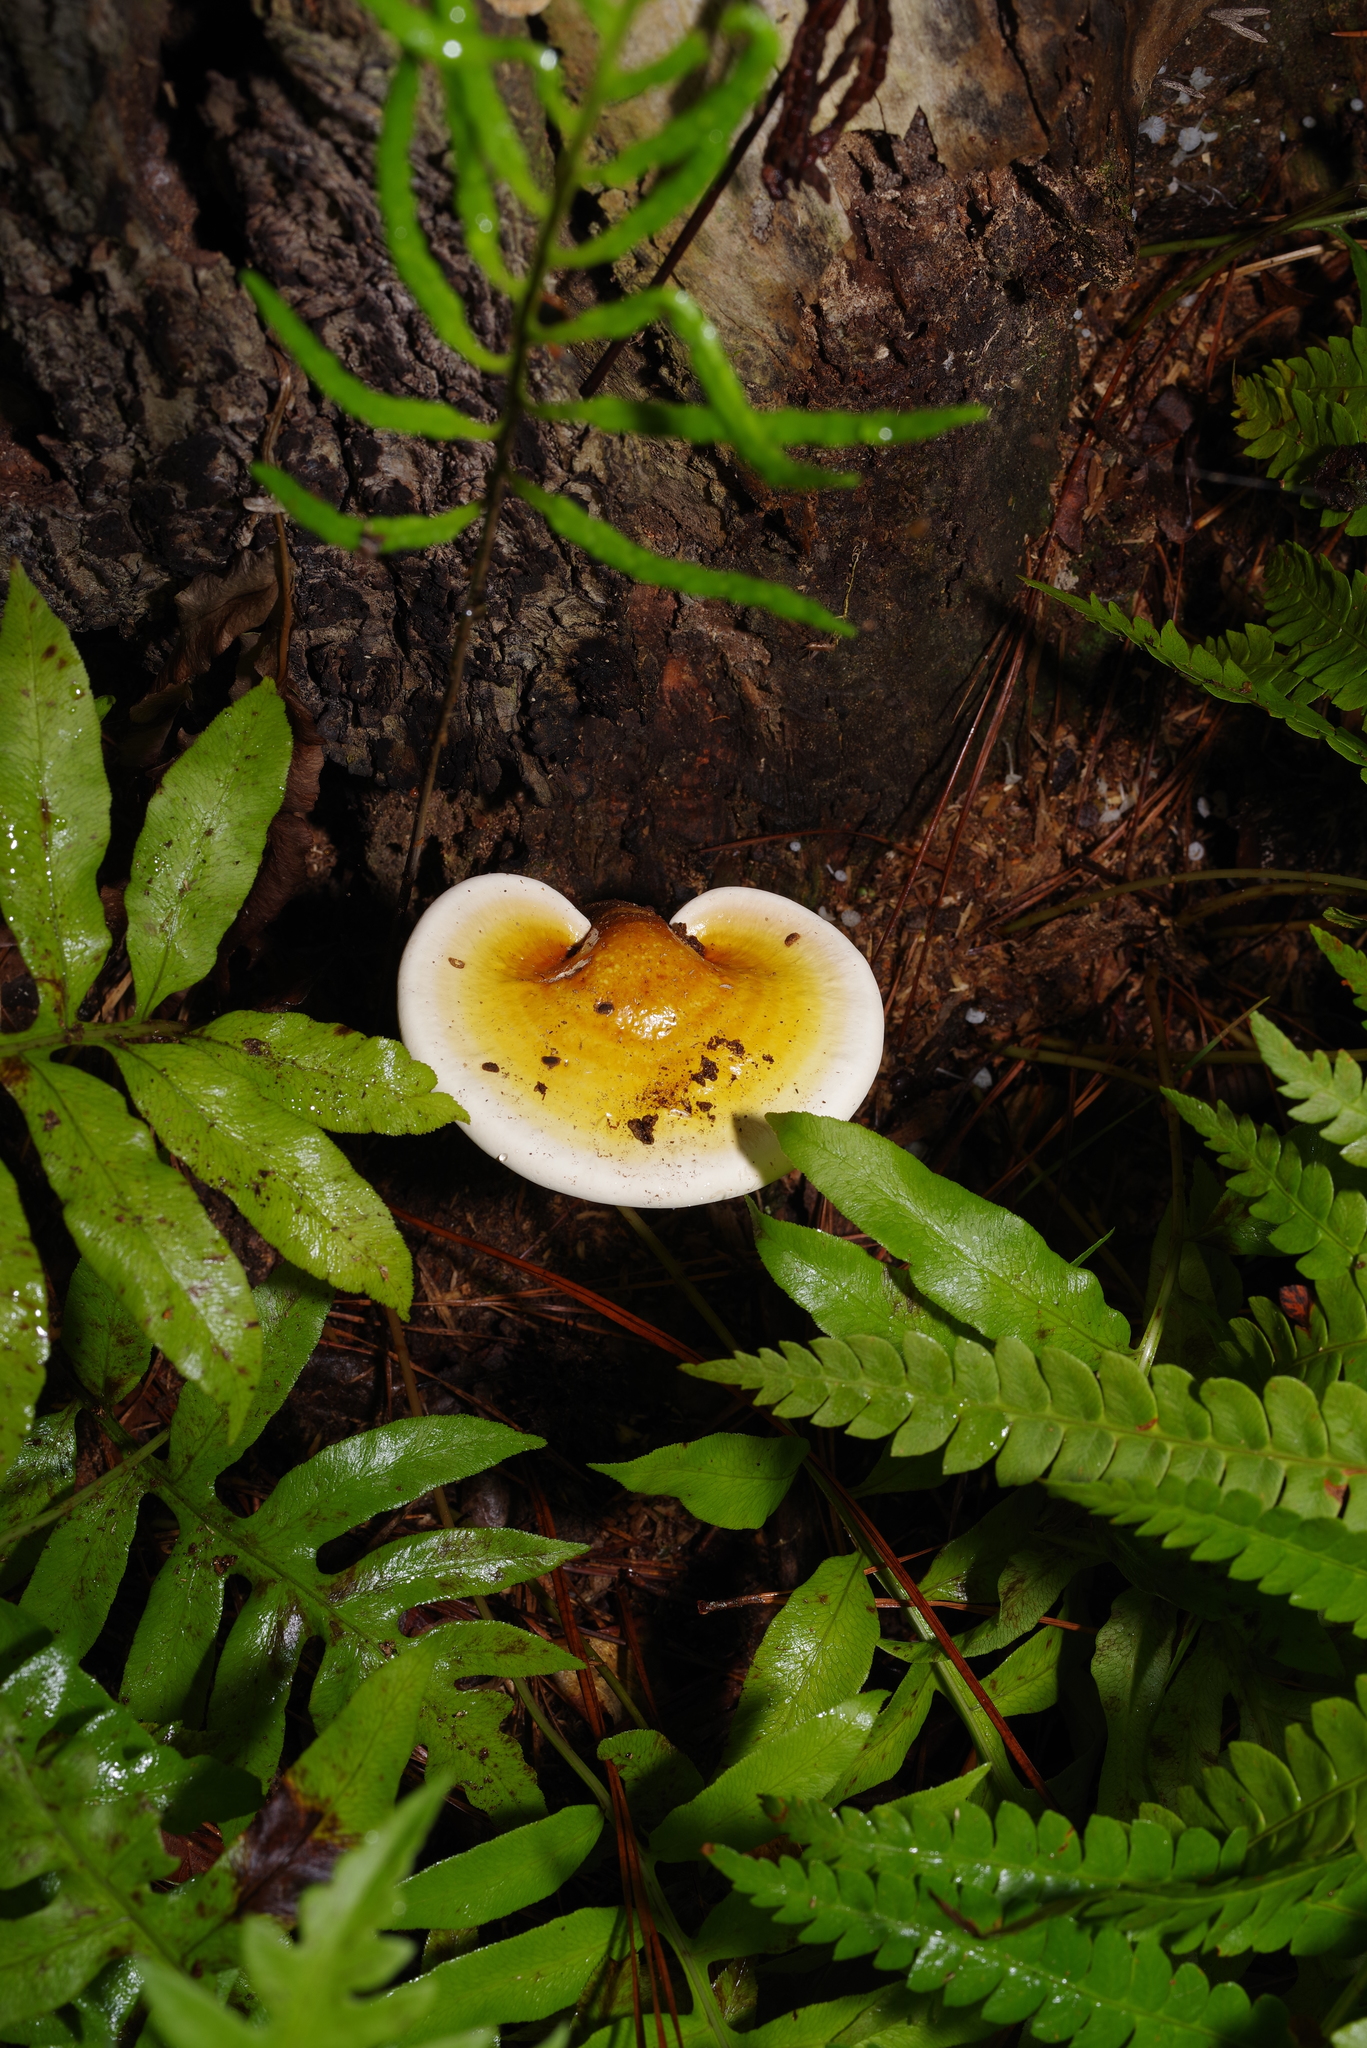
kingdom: Fungi
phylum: Basidiomycota
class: Agaricomycetes
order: Polyporales
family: Polyporaceae
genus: Ganoderma
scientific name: Ganoderma curtisii
